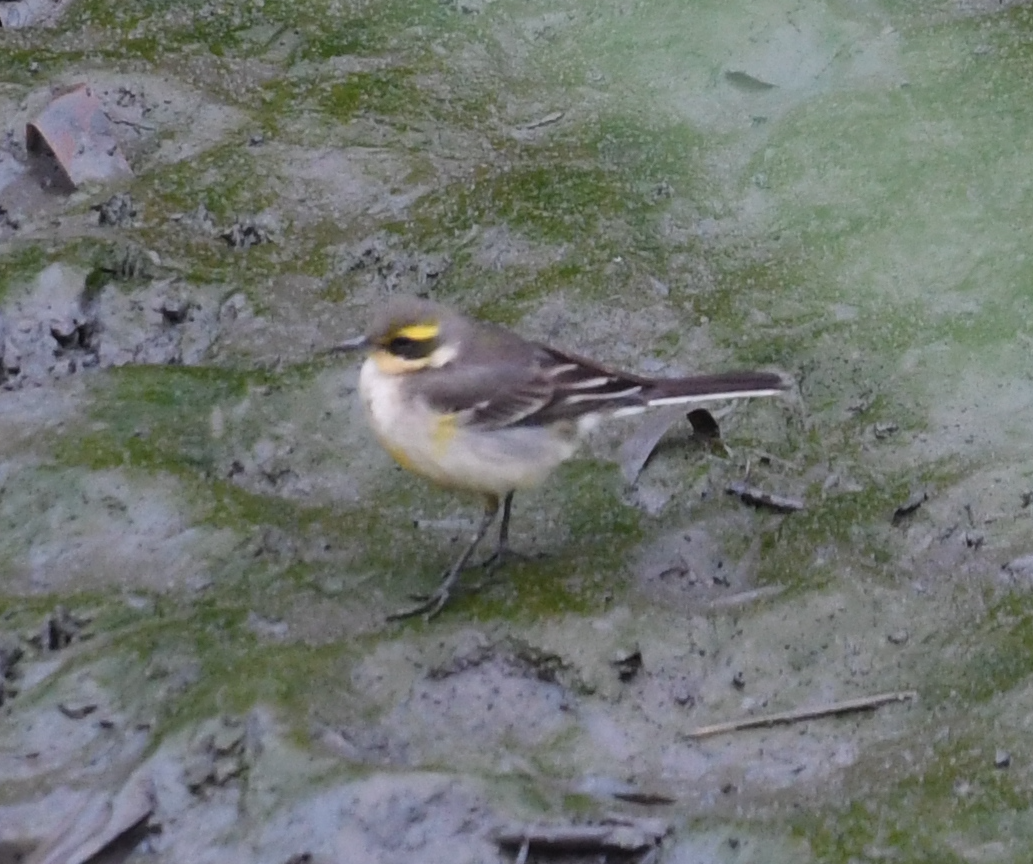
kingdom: Animalia
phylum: Chordata
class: Aves
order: Passeriformes
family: Motacillidae
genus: Motacilla
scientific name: Motacilla tschutschensis
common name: Eastern yellow wagtail
